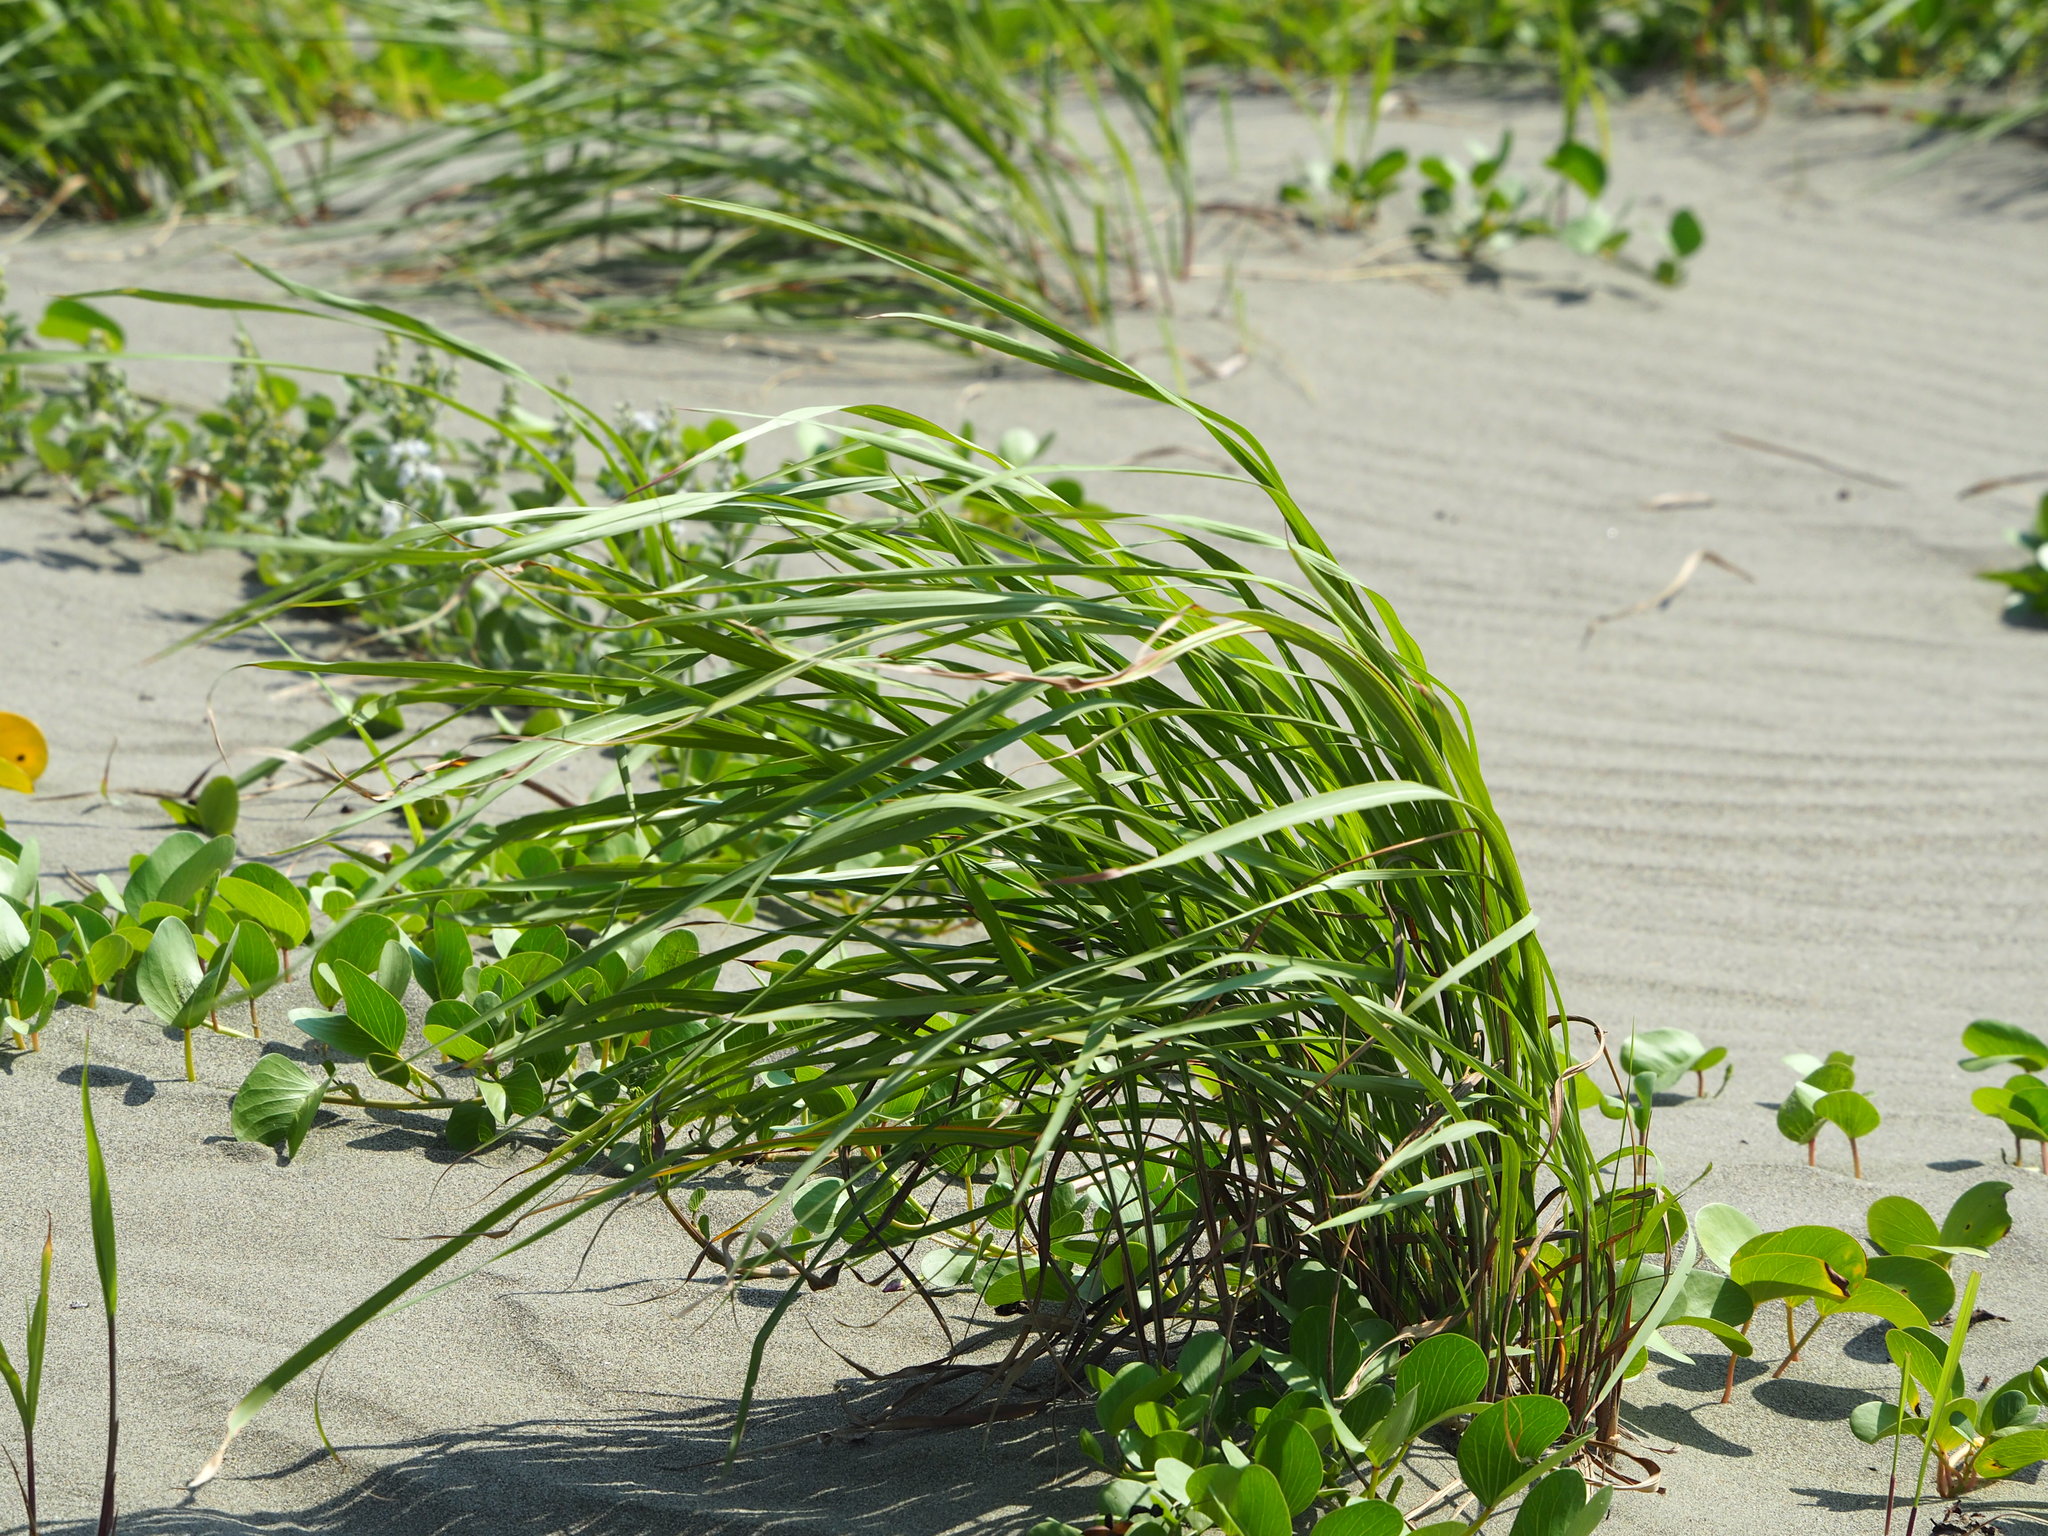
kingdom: Plantae
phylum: Tracheophyta
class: Liliopsida
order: Poales
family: Poaceae
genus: Imperata
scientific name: Imperata cylindrica
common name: Cogongrass
